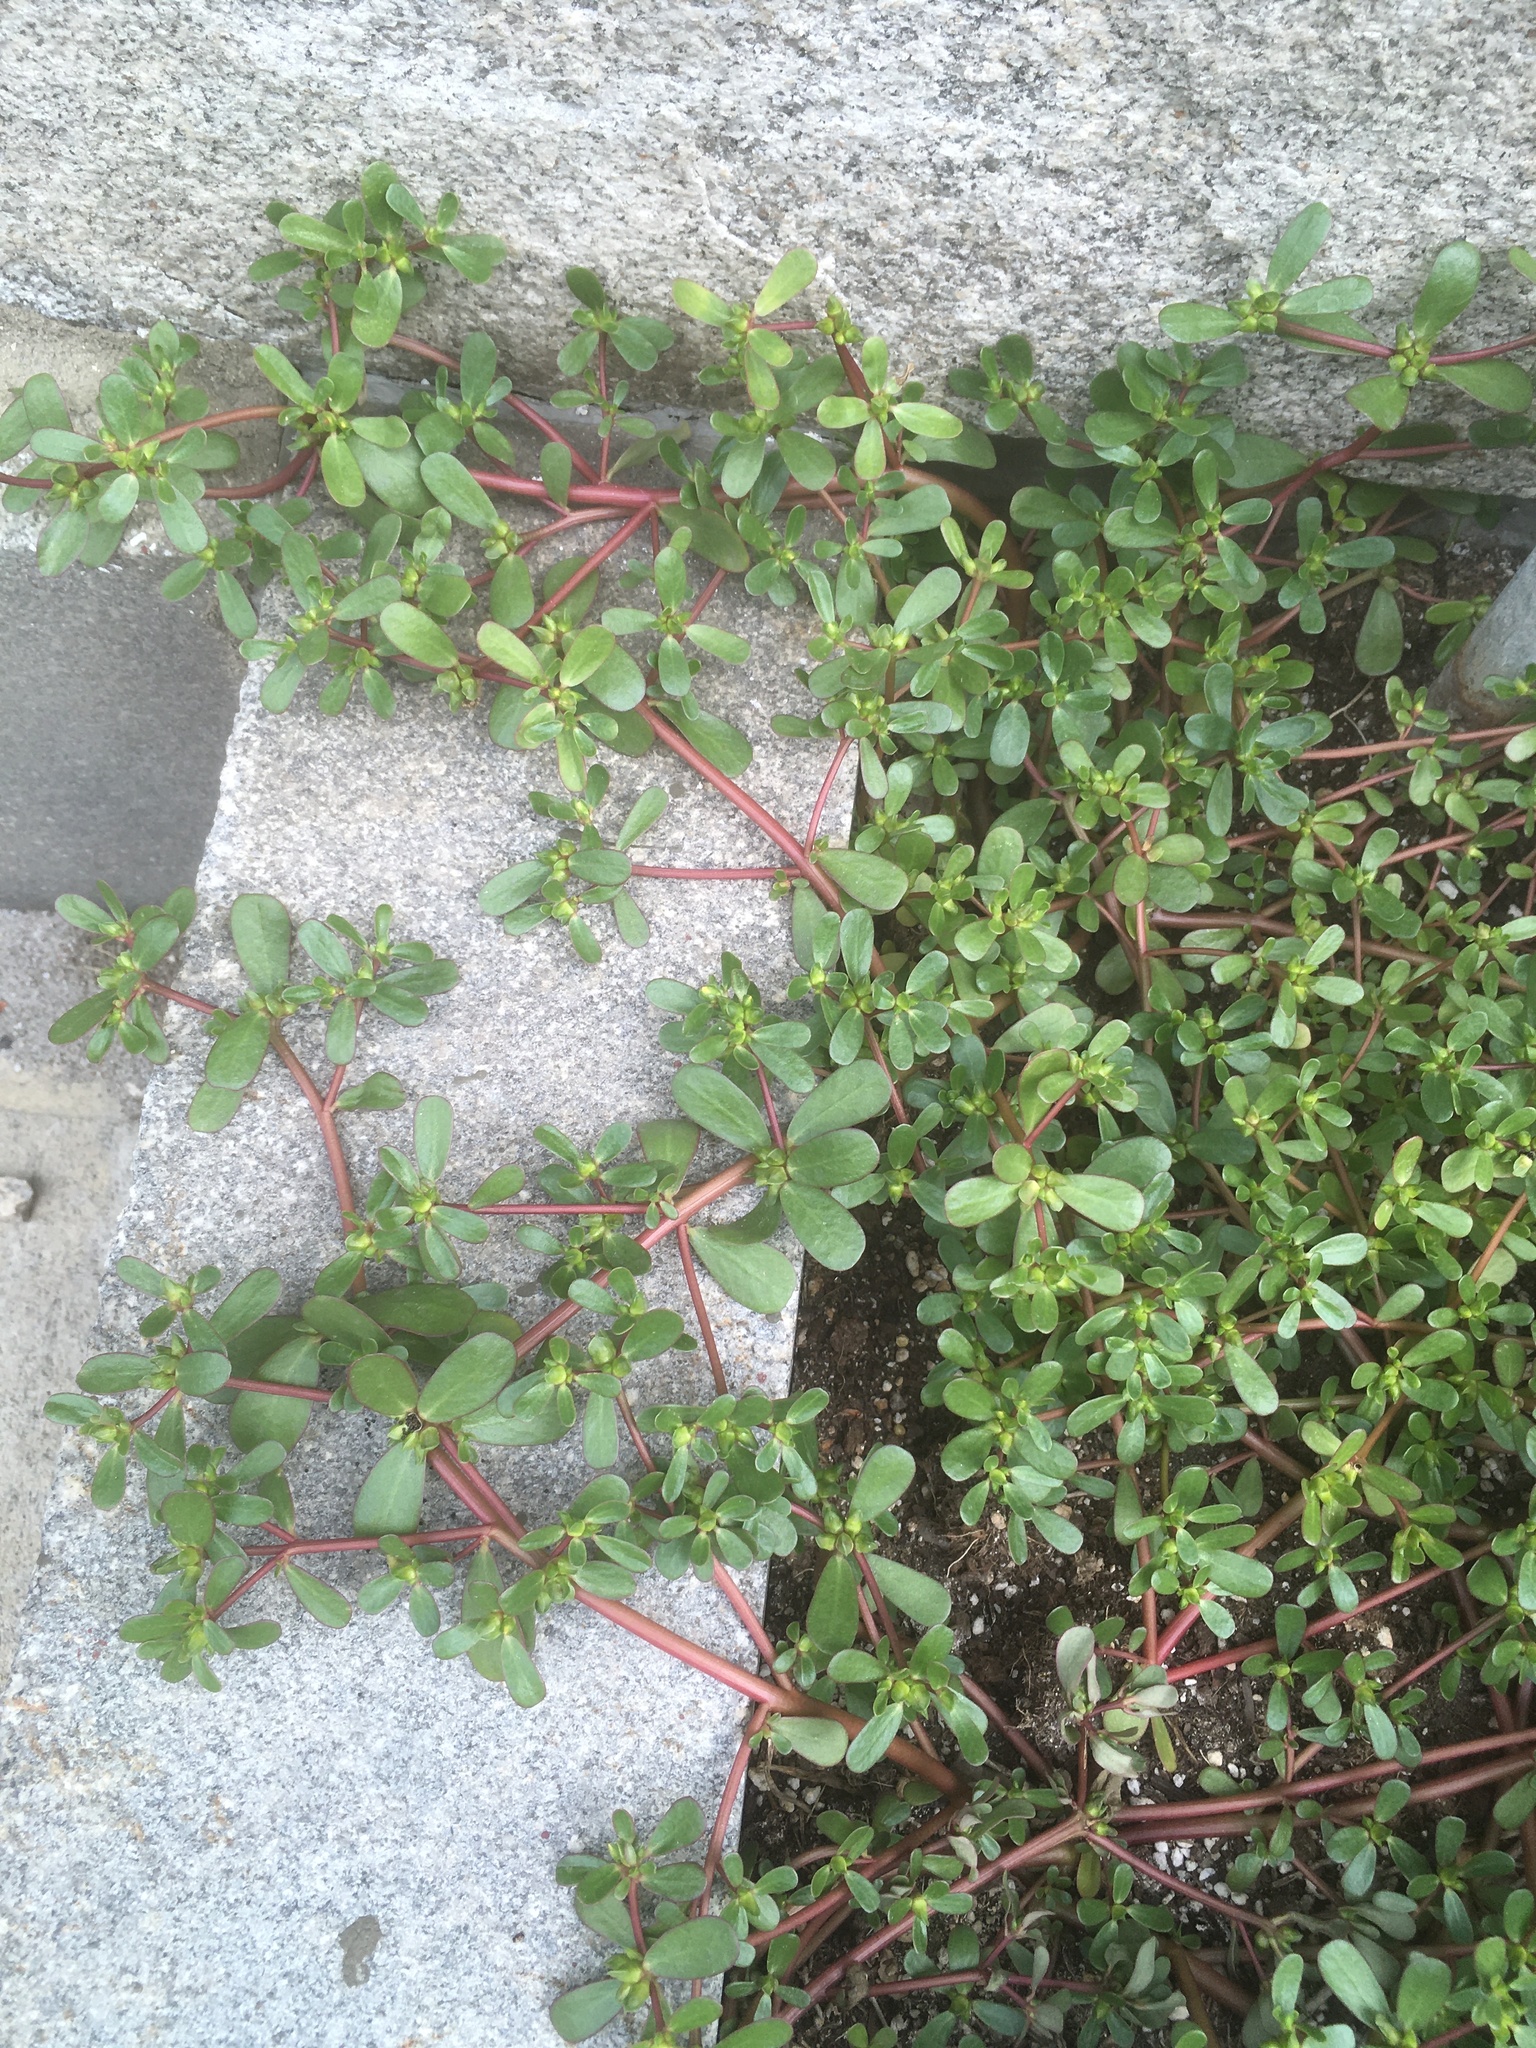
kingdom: Plantae
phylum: Tracheophyta
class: Magnoliopsida
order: Caryophyllales
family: Portulacaceae
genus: Portulaca
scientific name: Portulaca oleracea
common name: Common purslane
